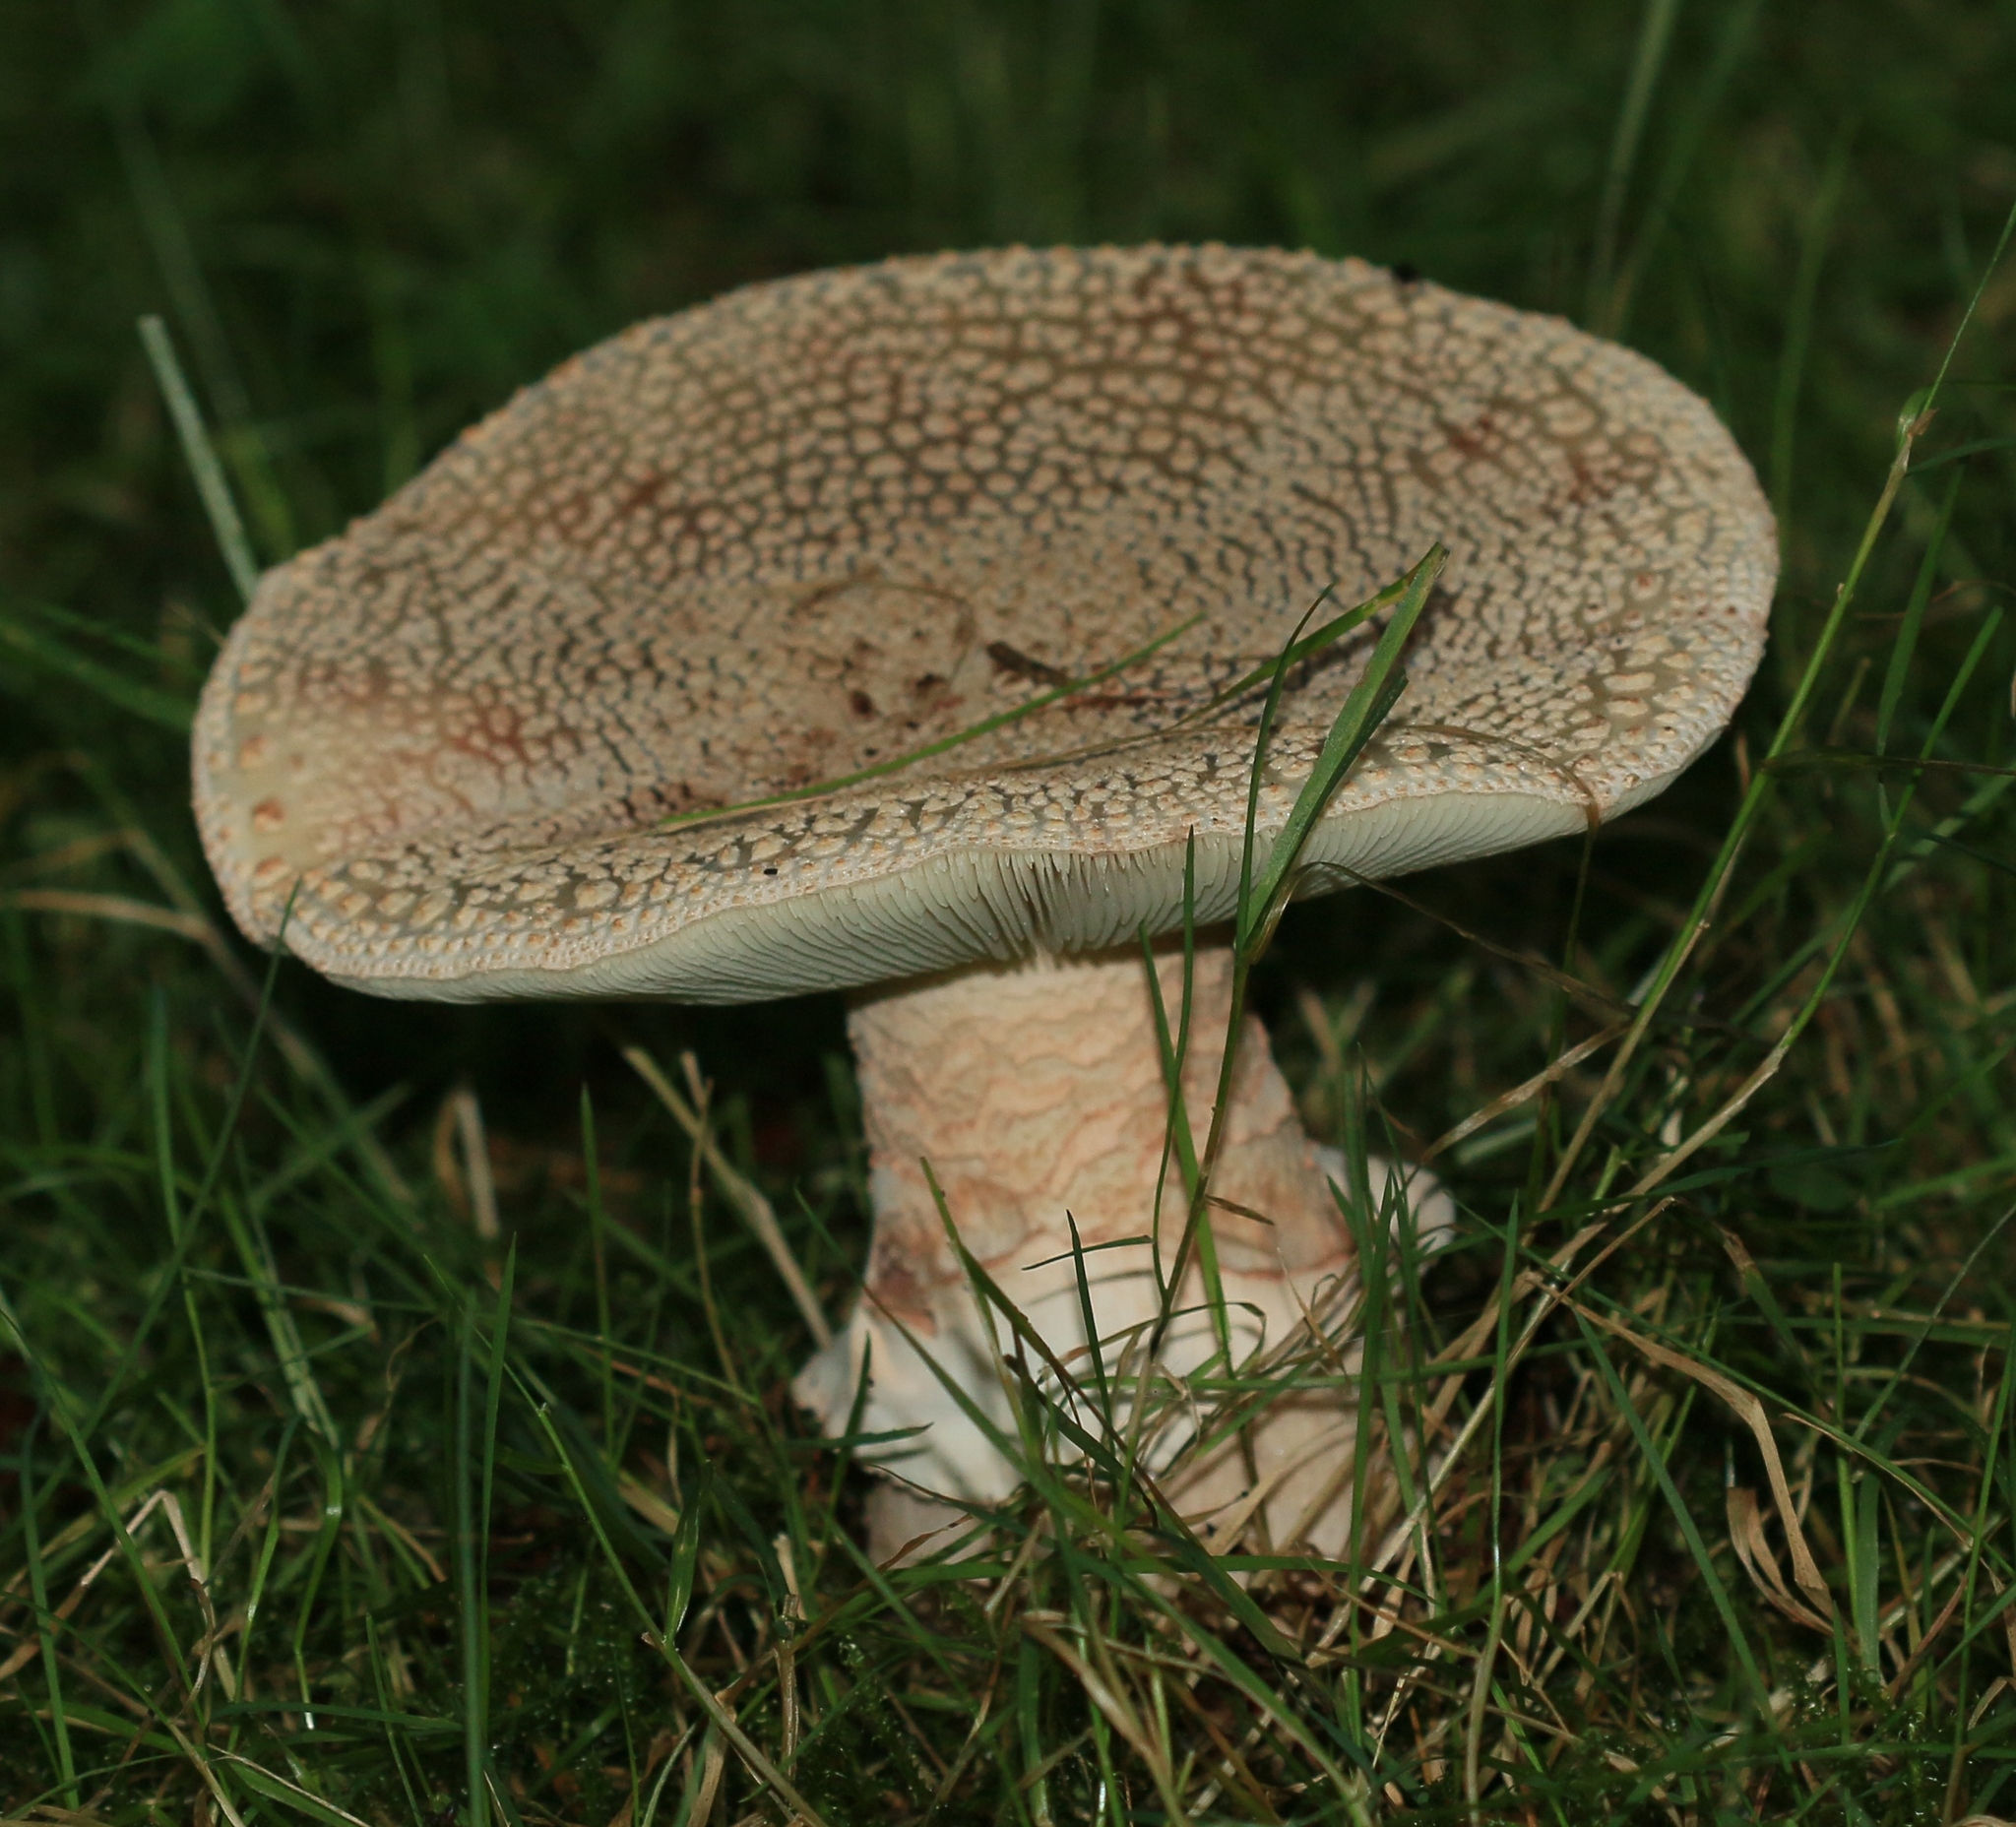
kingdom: Fungi
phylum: Basidiomycota
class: Agaricomycetes
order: Agaricales
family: Amanitaceae
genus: Amanita
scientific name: Amanita rubescens
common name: Blusher
